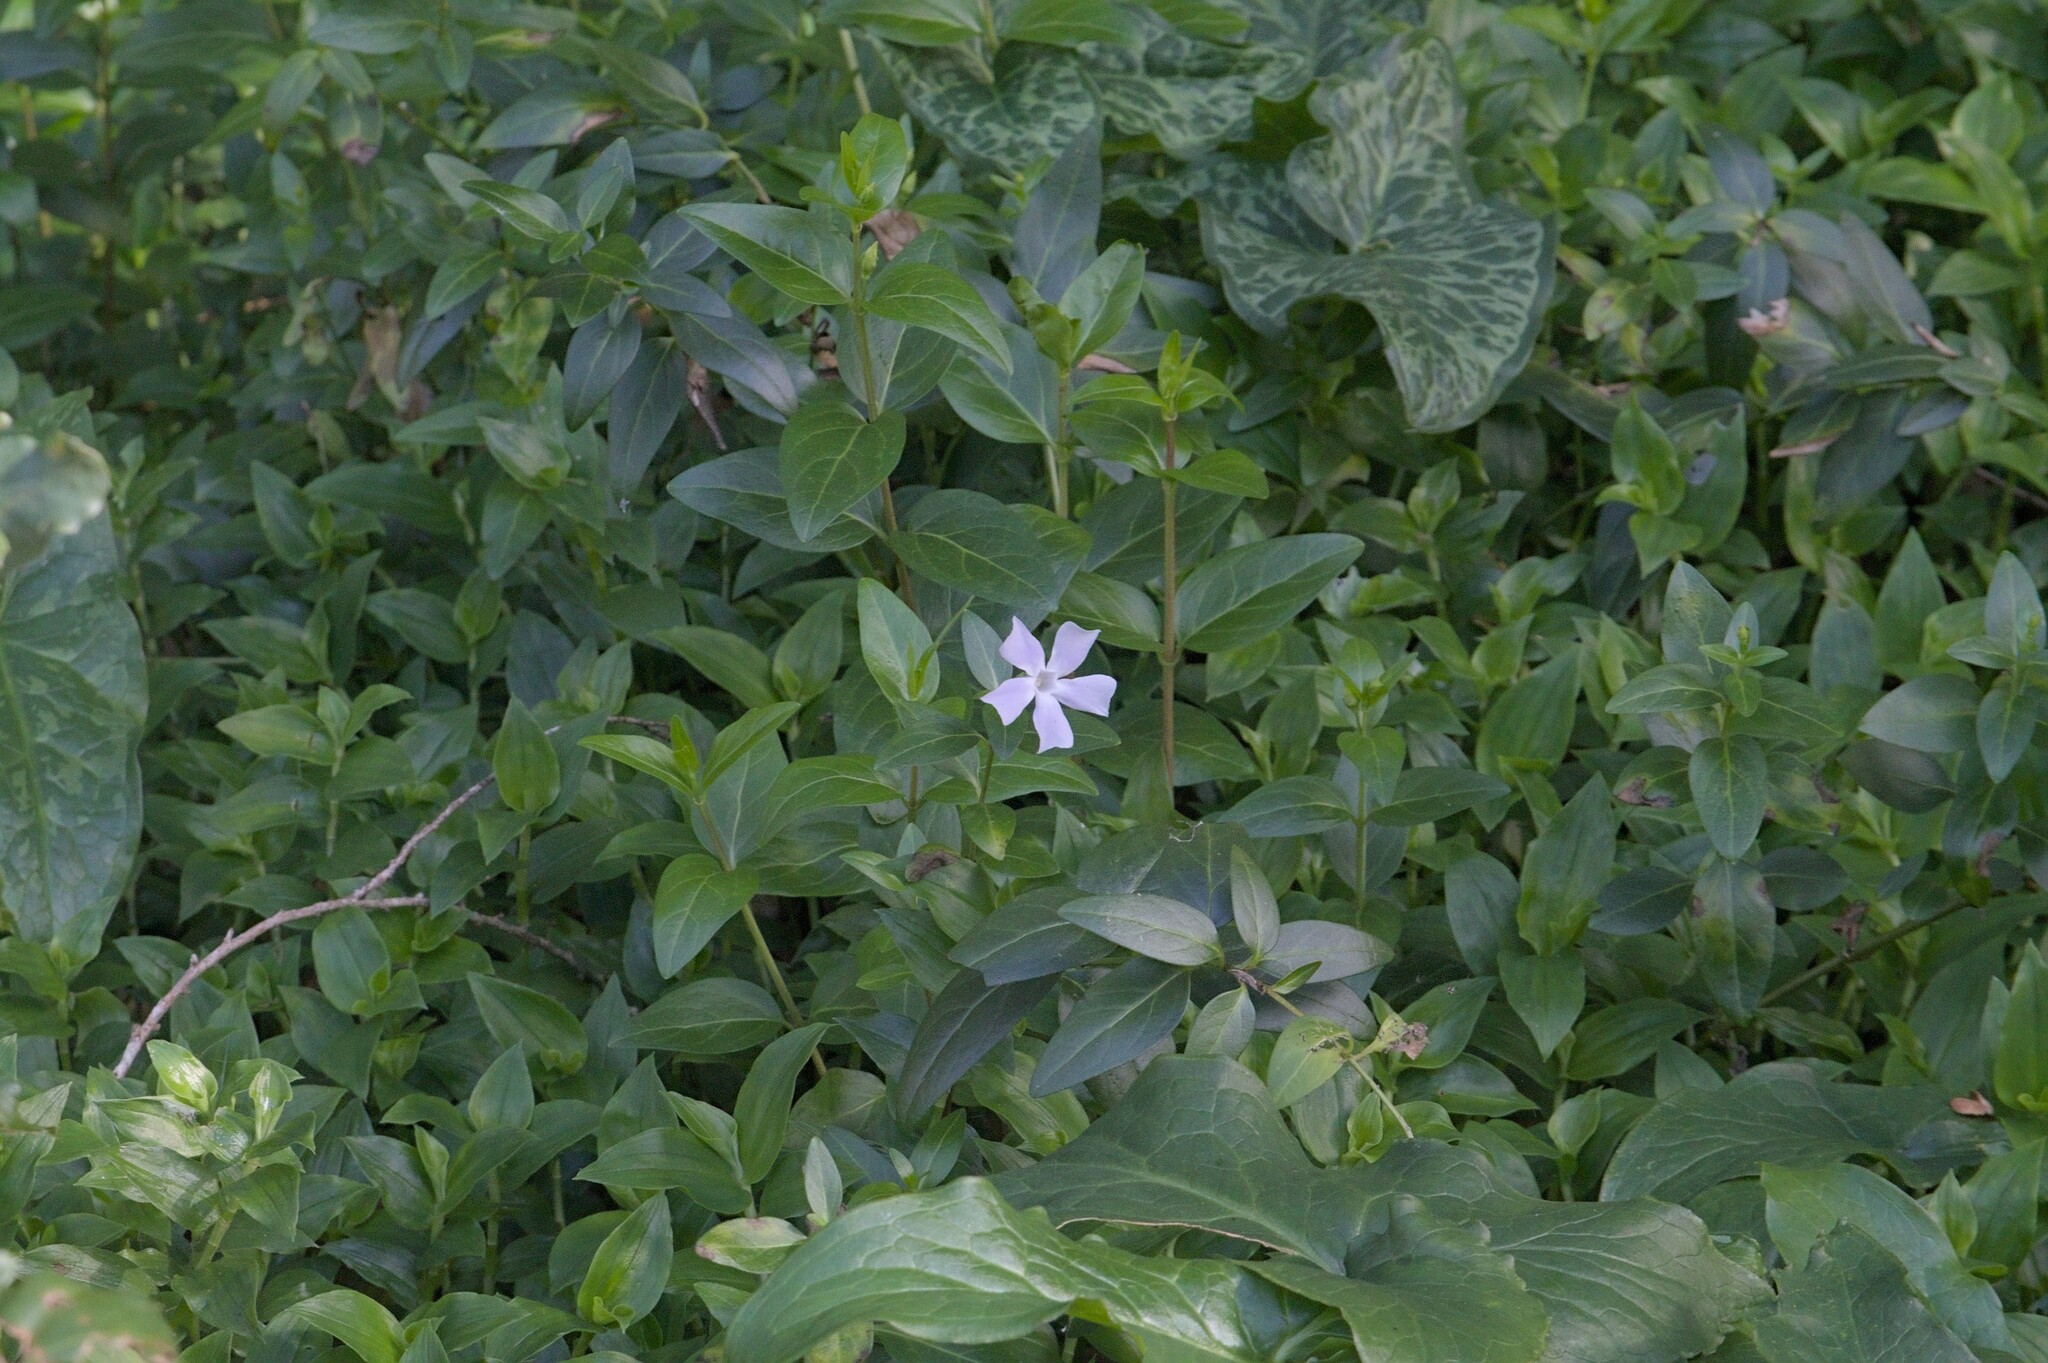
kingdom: Plantae
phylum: Tracheophyta
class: Liliopsida
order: Alismatales
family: Araceae
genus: Arum
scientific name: Arum italicum
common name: Italian lords-and-ladies
